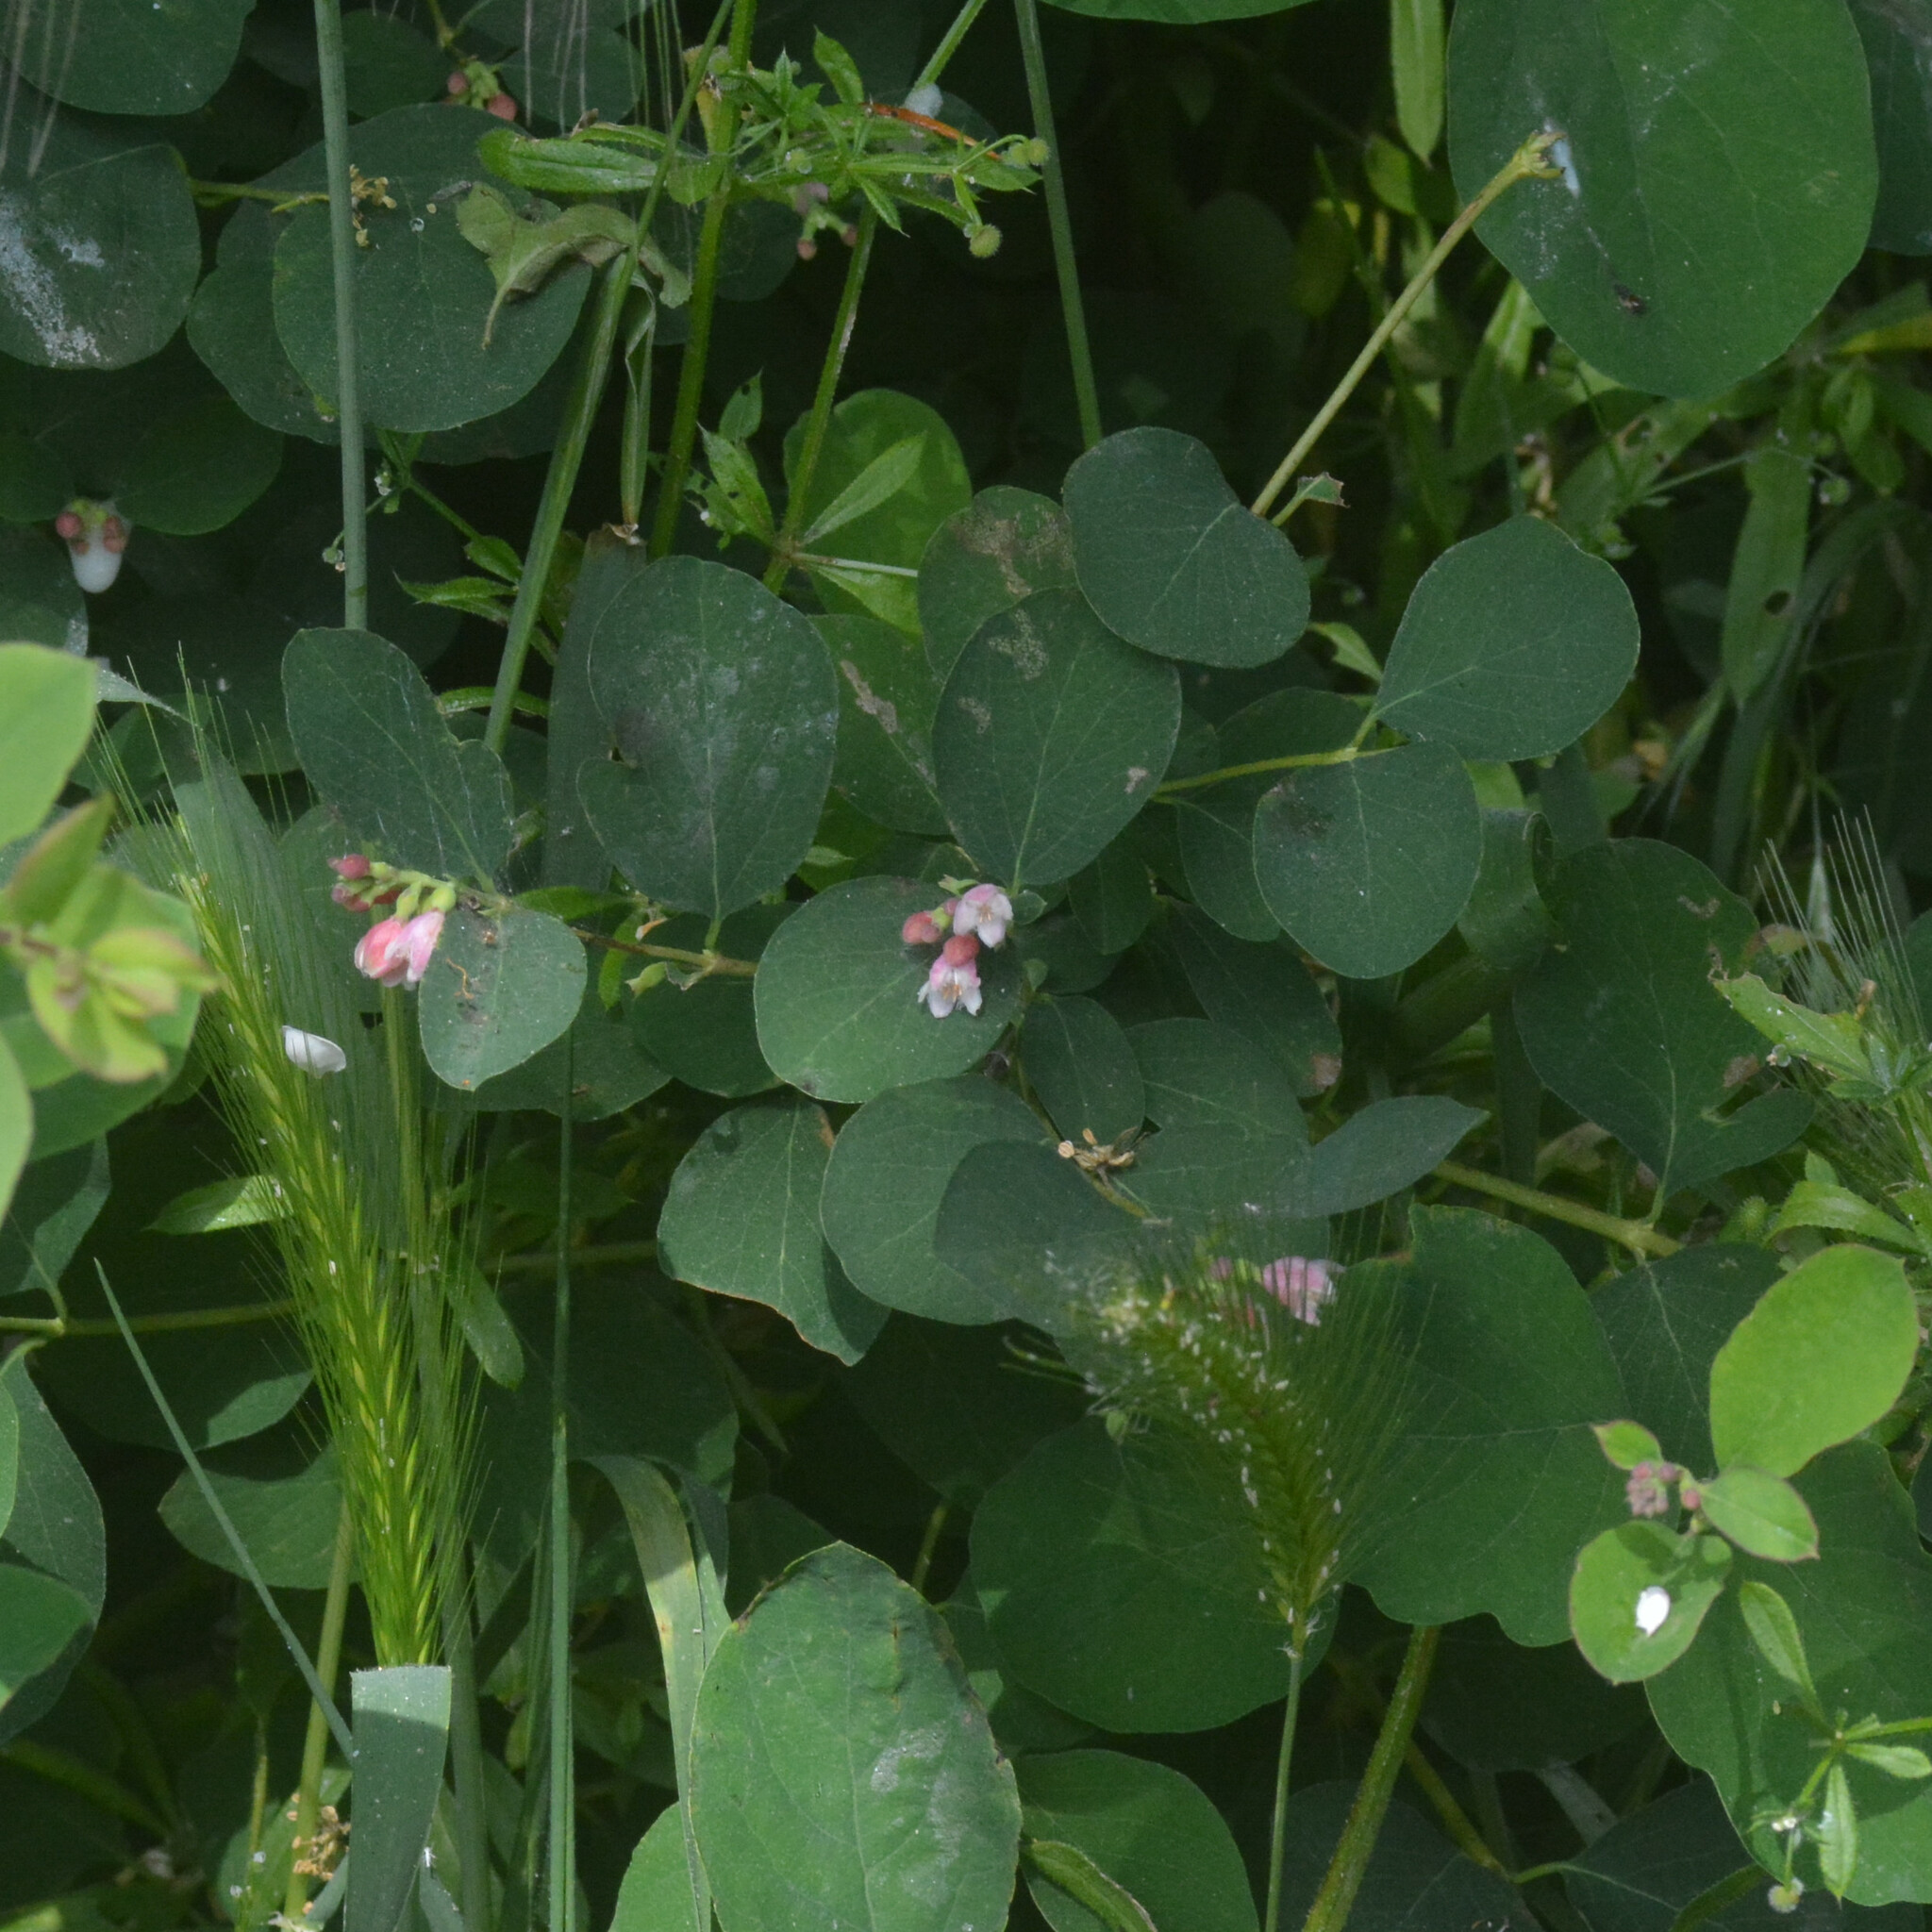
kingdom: Plantae
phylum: Tracheophyta
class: Magnoliopsida
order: Dipsacales
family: Caprifoliaceae
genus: Symphoricarpos
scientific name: Symphoricarpos albus
